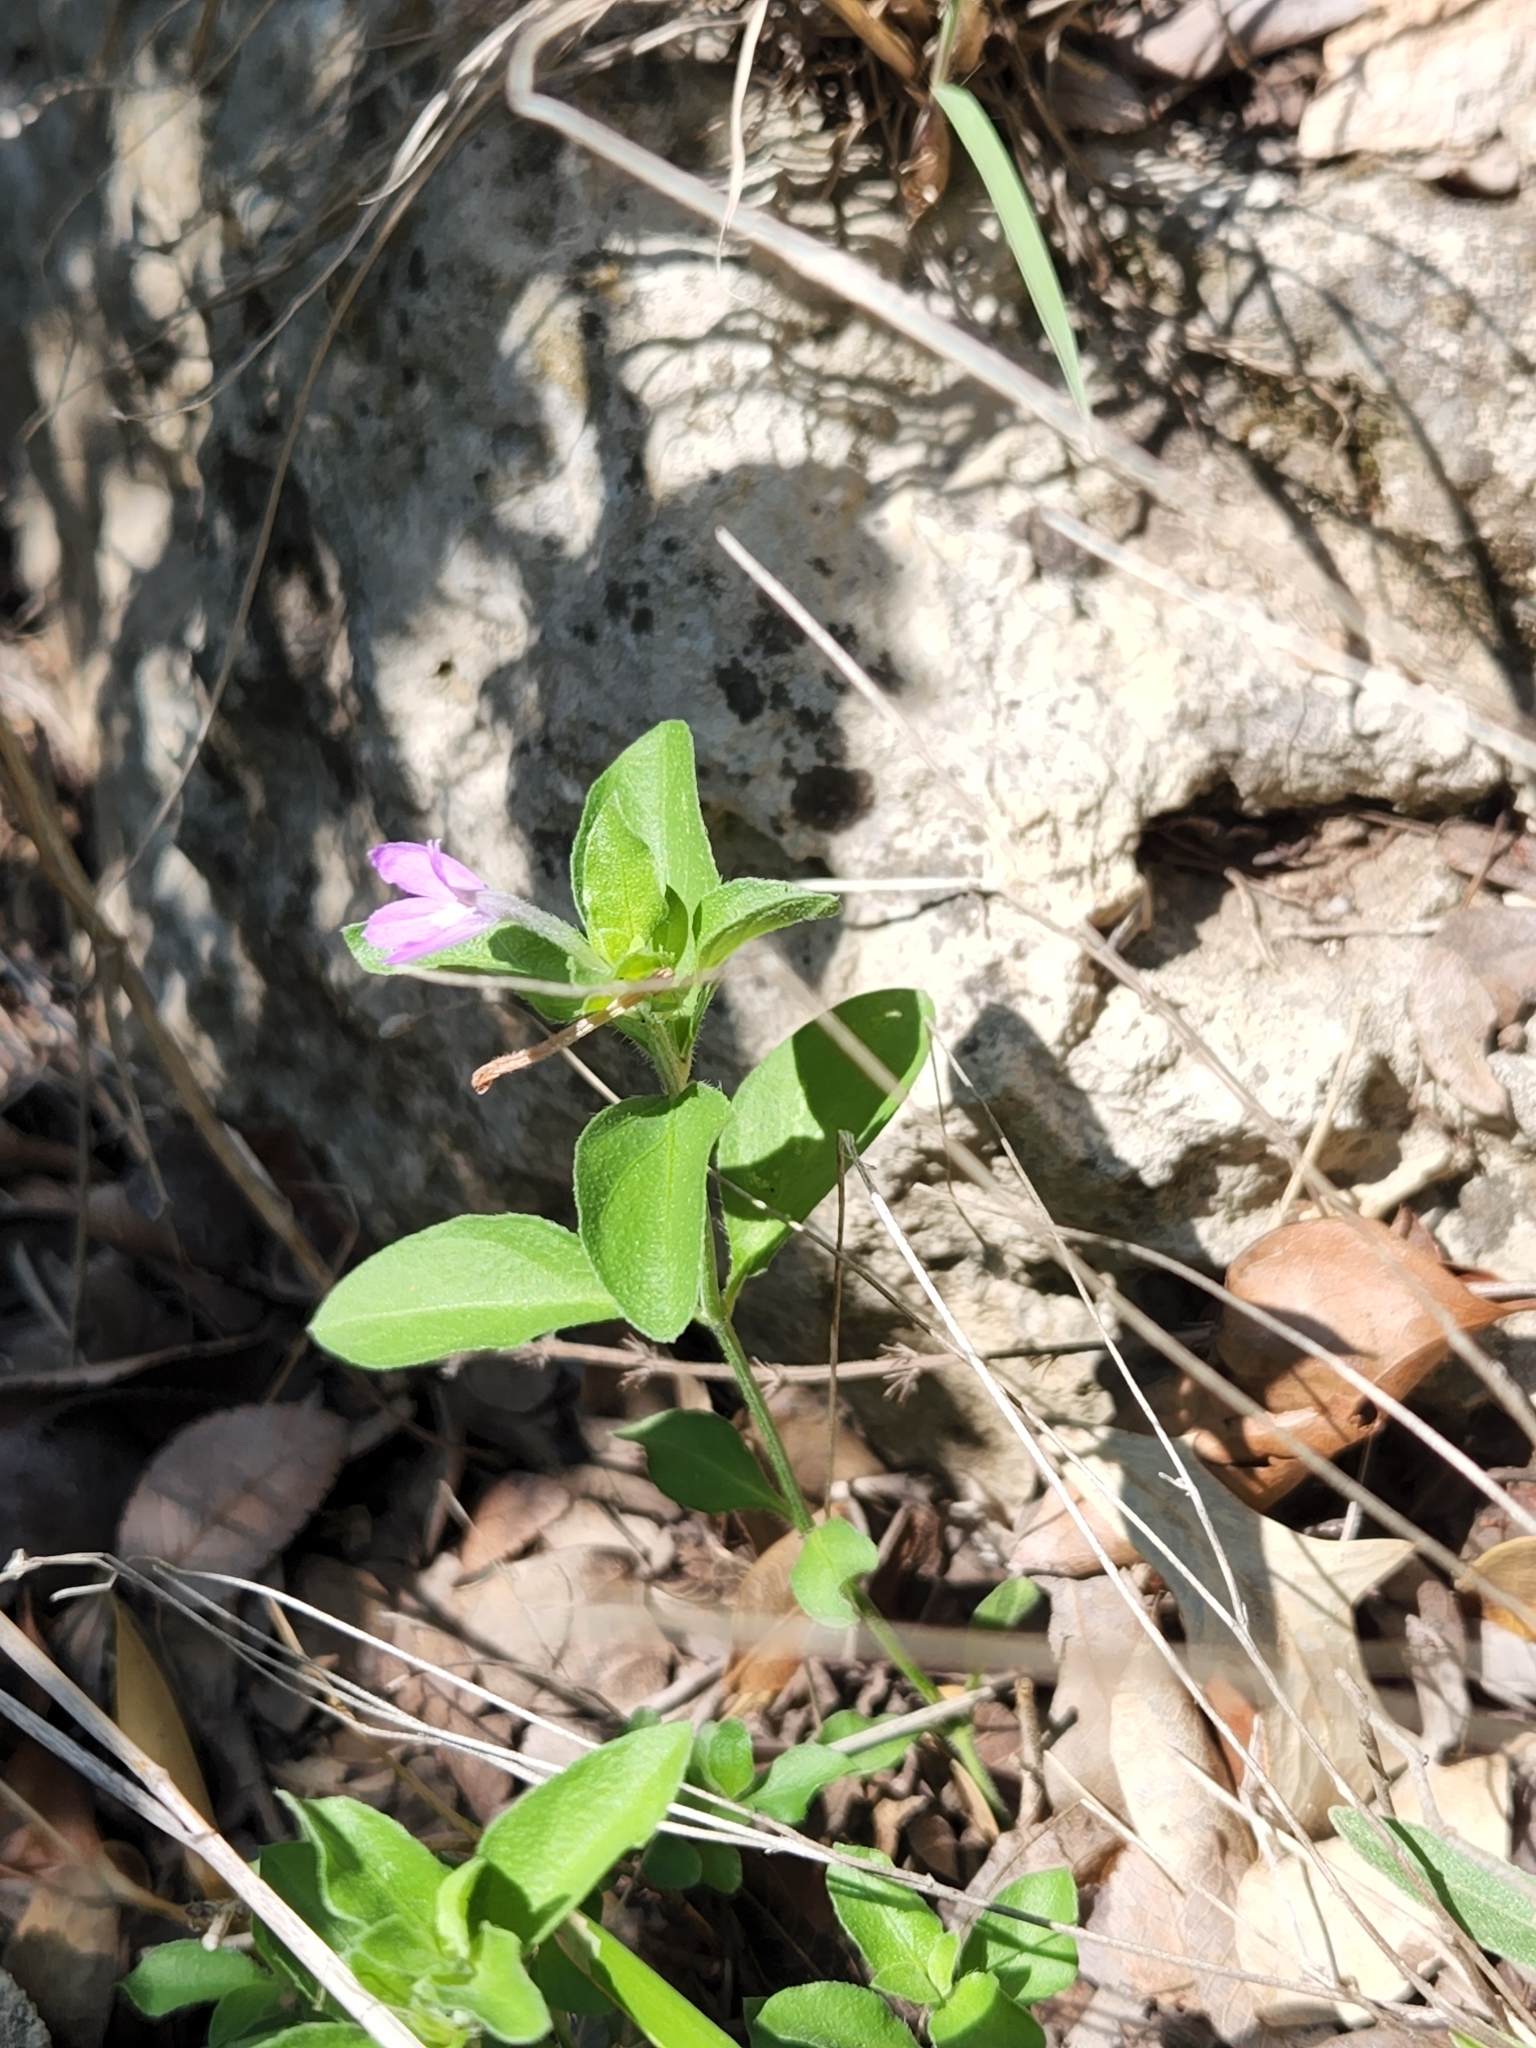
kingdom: Plantae
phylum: Tracheophyta
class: Magnoliopsida
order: Lamiales
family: Acanthaceae
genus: Justicia
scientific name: Justicia pilosella
